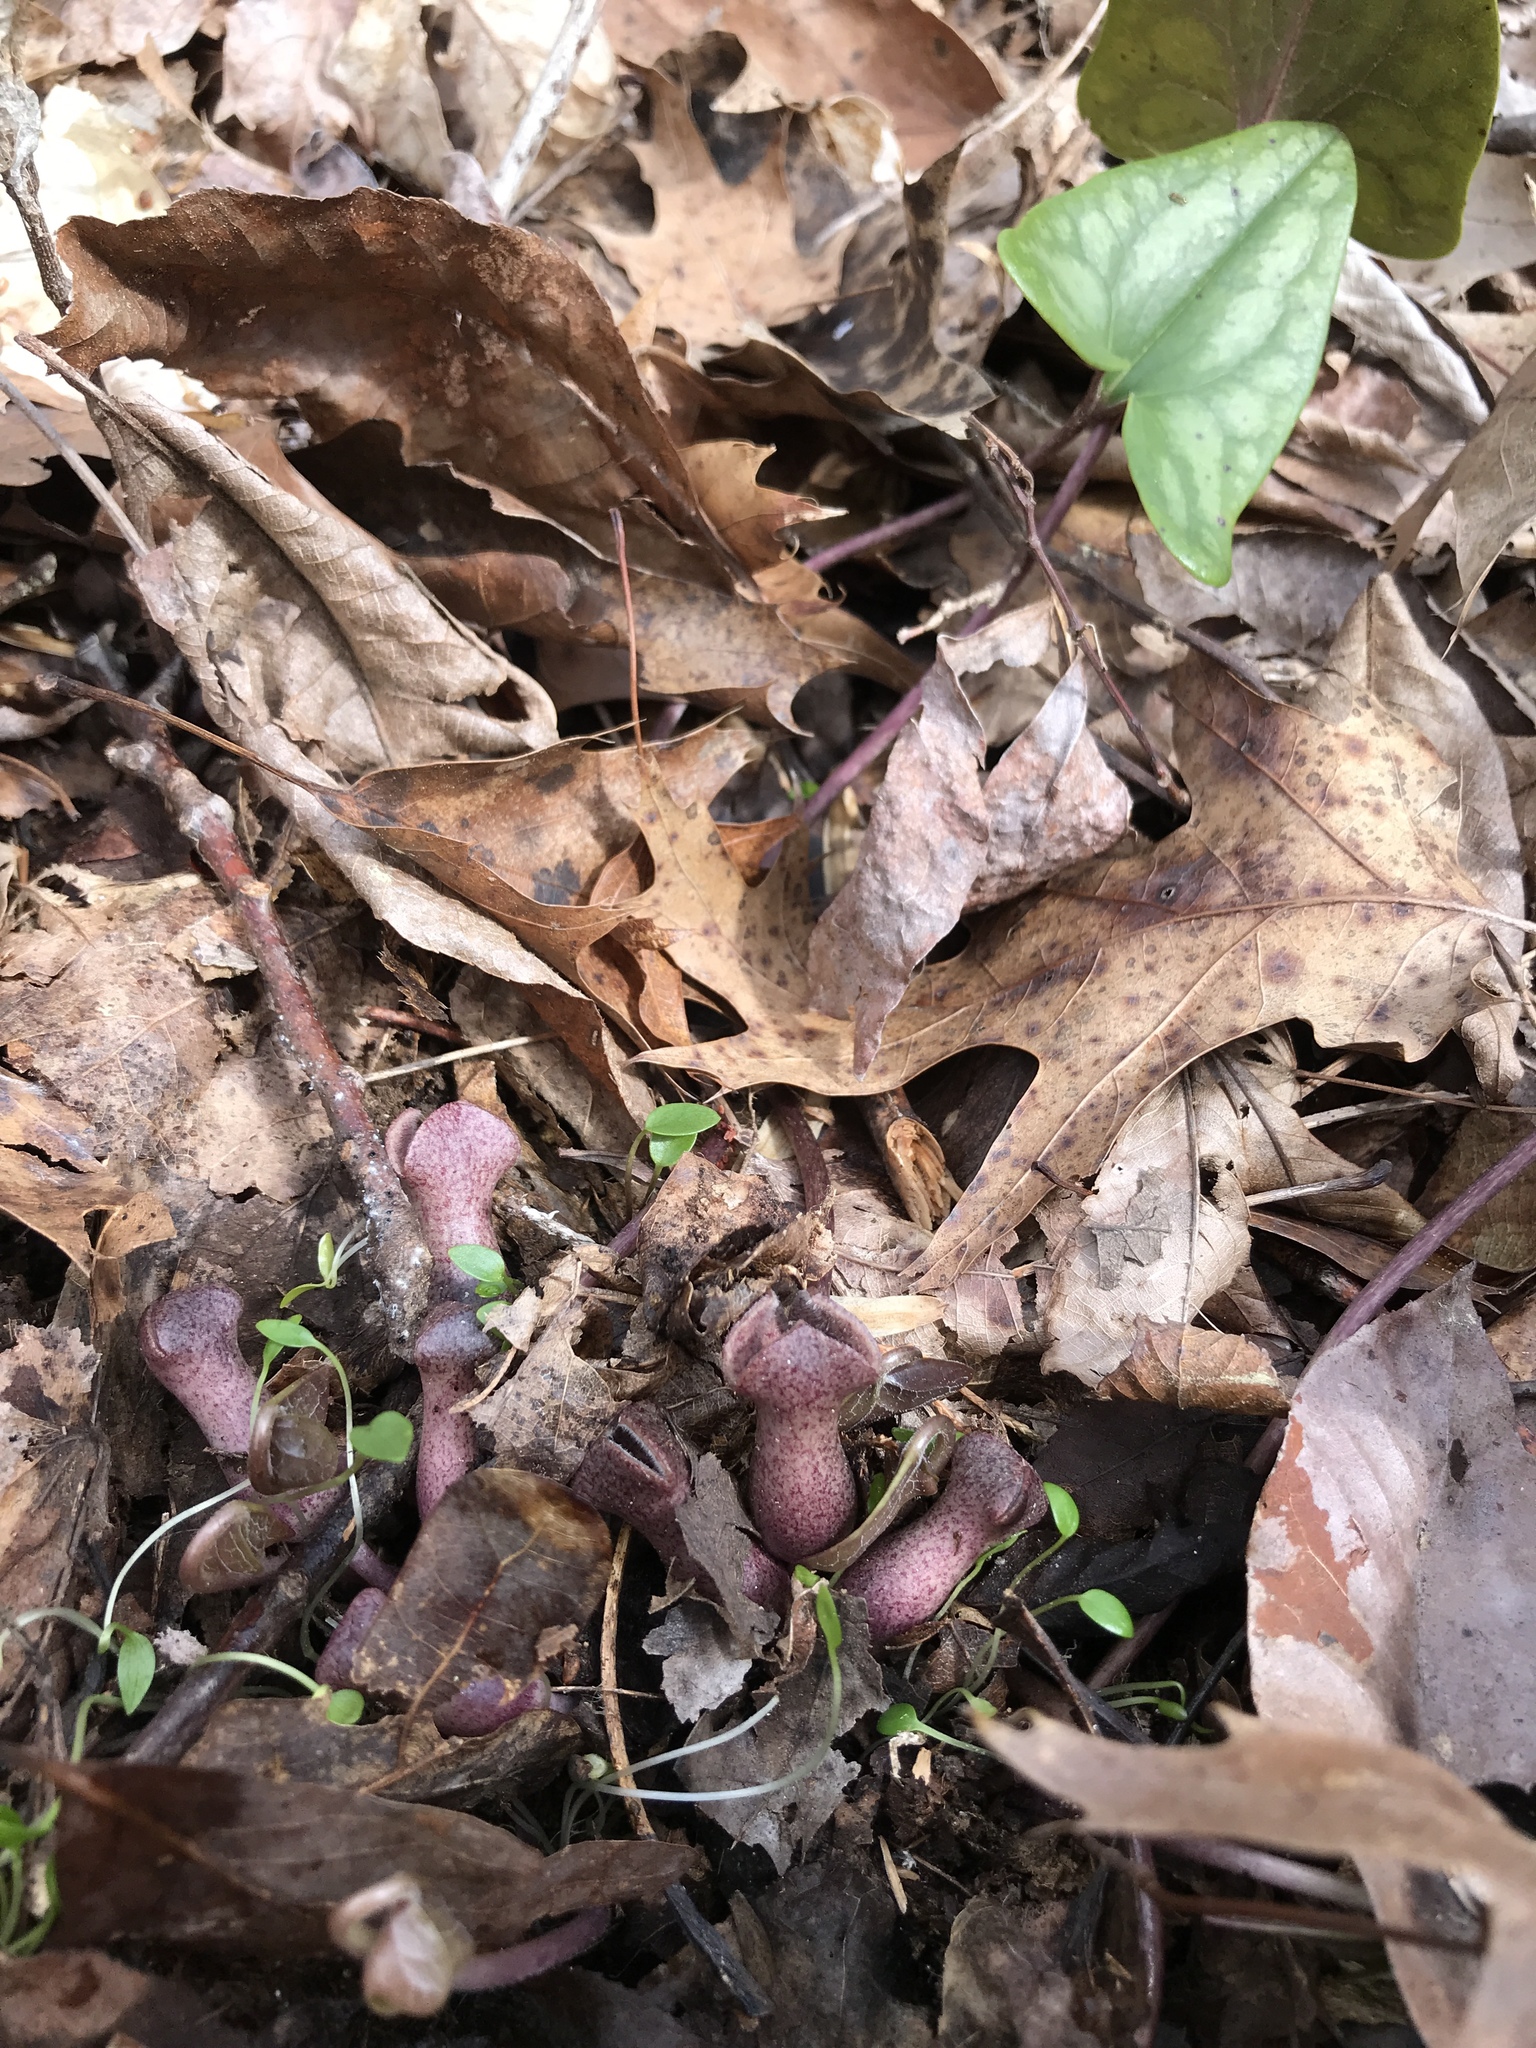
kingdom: Plantae
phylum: Tracheophyta
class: Magnoliopsida
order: Piperales
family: Aristolochiaceae
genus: Hexastylis
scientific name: Hexastylis arifolia
